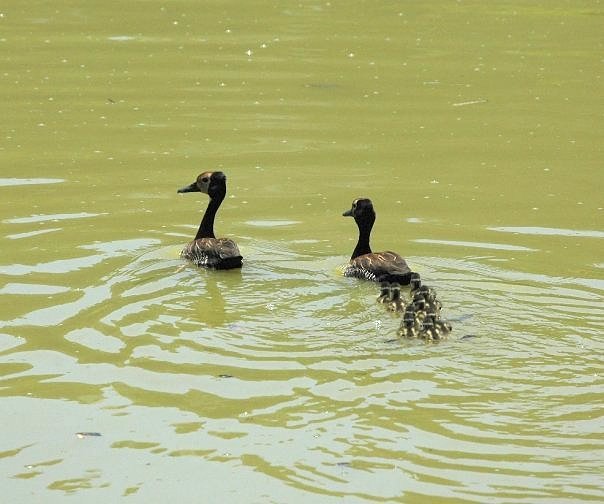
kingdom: Animalia
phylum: Chordata
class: Aves
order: Anseriformes
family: Anatidae
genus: Dendrocygna
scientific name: Dendrocygna viduata
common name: White-faced whistling duck
